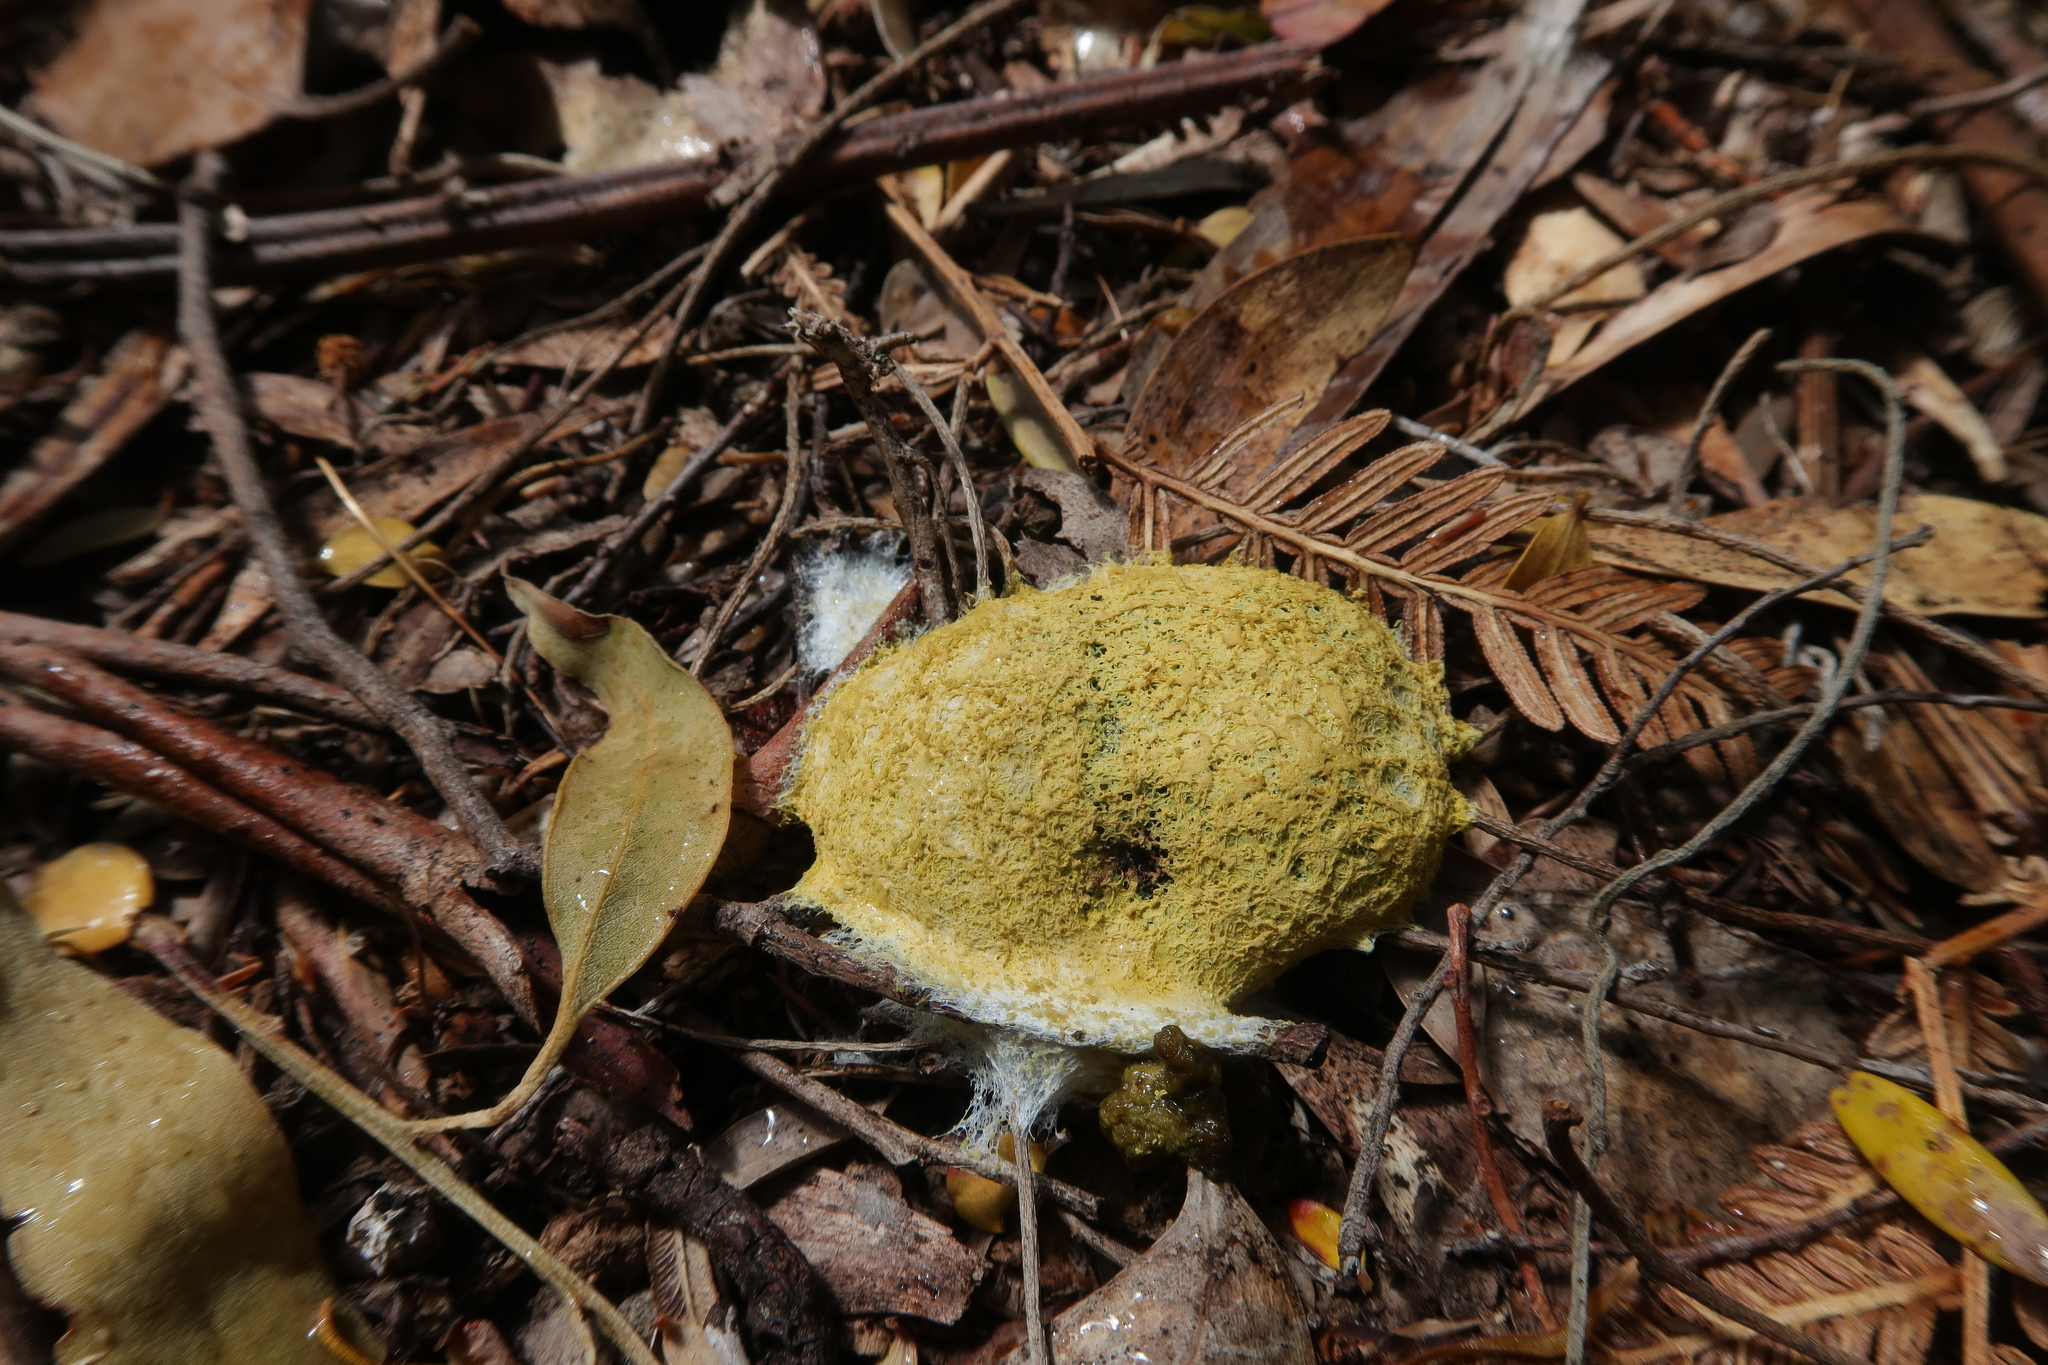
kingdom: Protozoa
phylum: Mycetozoa
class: Myxomycetes
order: Physarales
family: Physaraceae
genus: Fuligo
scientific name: Fuligo septica
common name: Dog vomit slime mold
